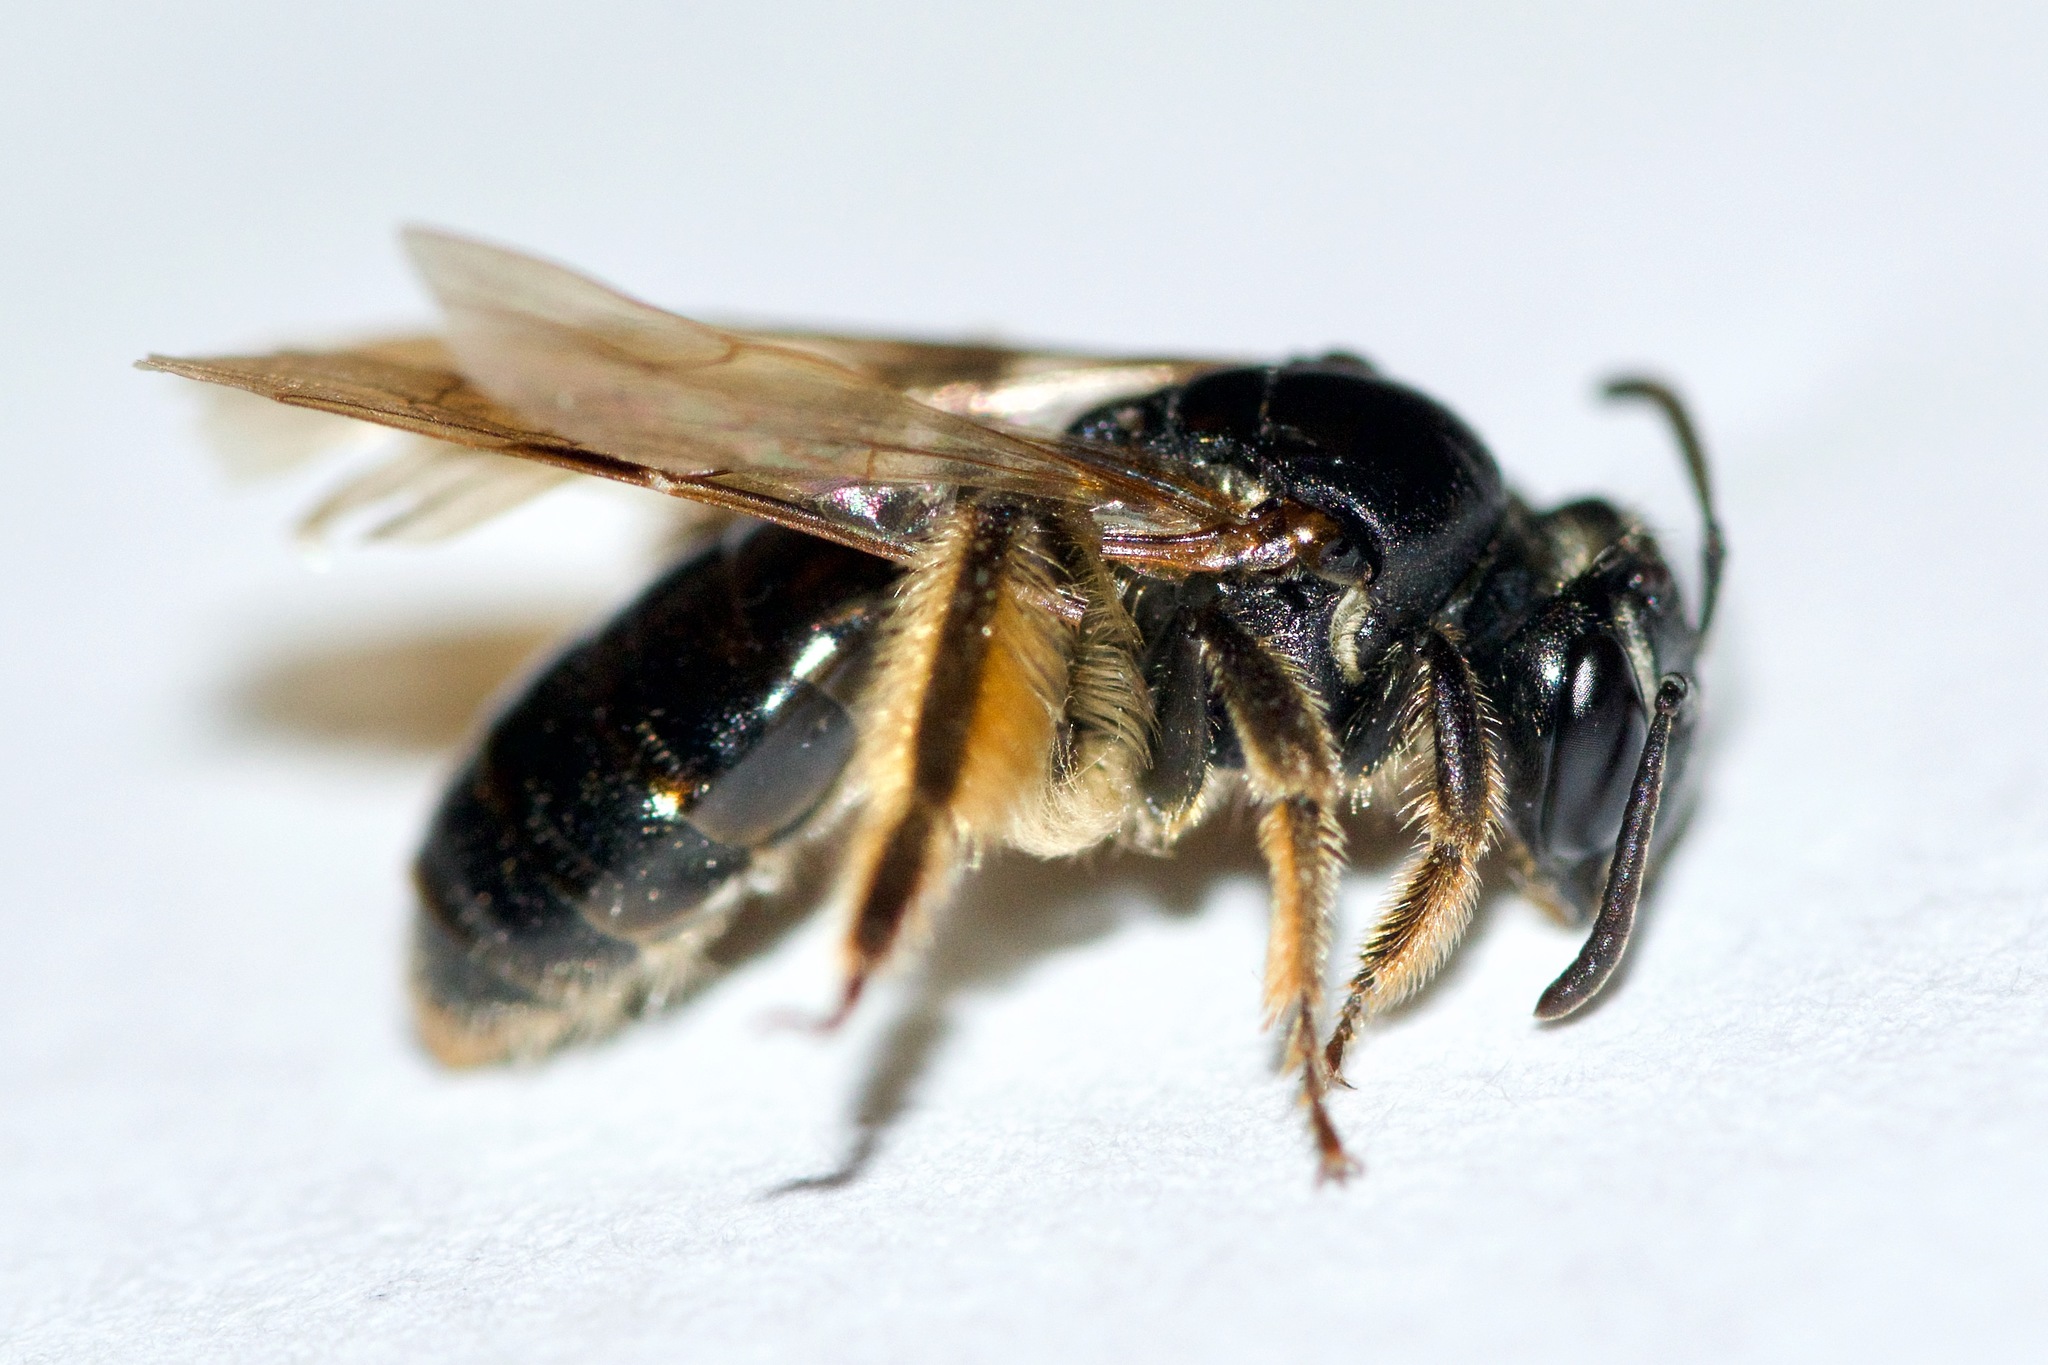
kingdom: Animalia
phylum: Arthropoda
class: Insecta
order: Hymenoptera
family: Andrenidae
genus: Andrena
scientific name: Andrena integra
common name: Short-haired dogwood mining bee
